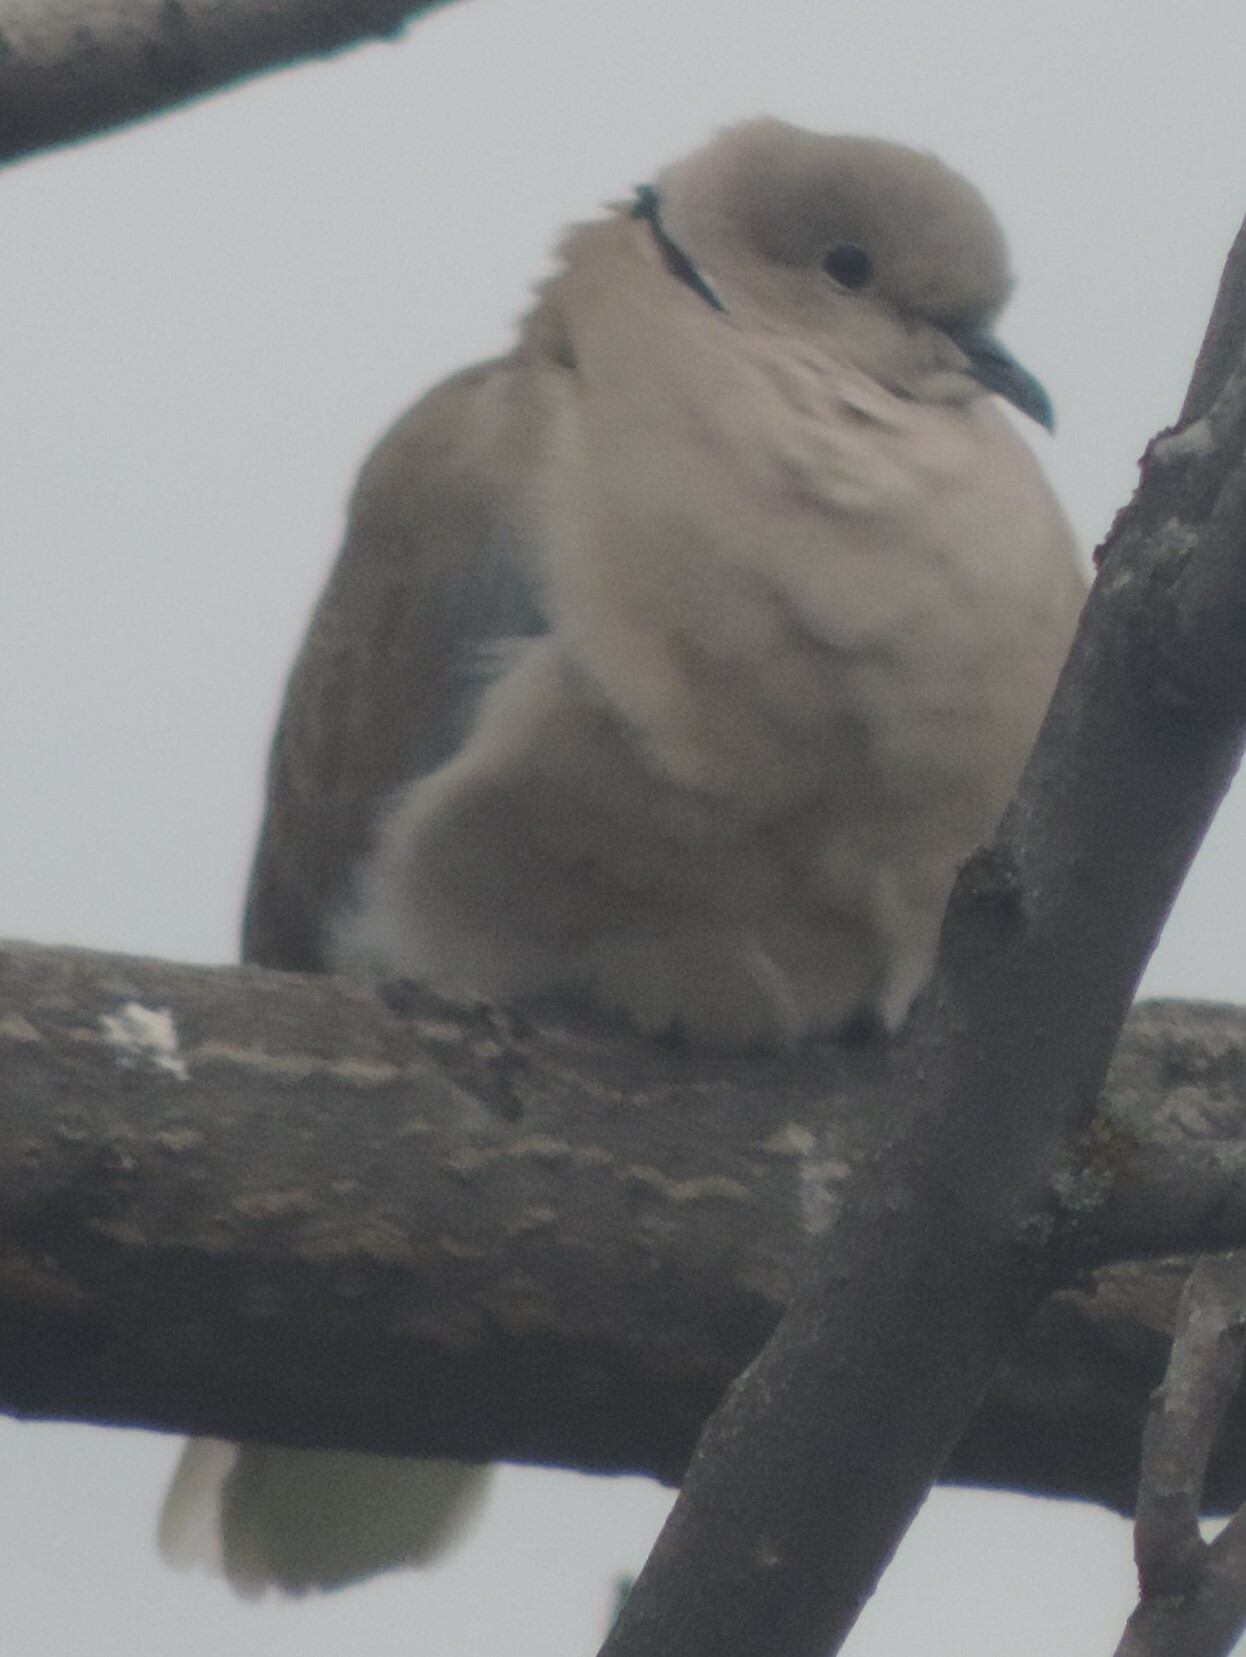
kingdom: Animalia
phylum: Chordata
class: Aves
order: Columbiformes
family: Columbidae
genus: Streptopelia
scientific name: Streptopelia decaocto
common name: Eurasian collared dove
